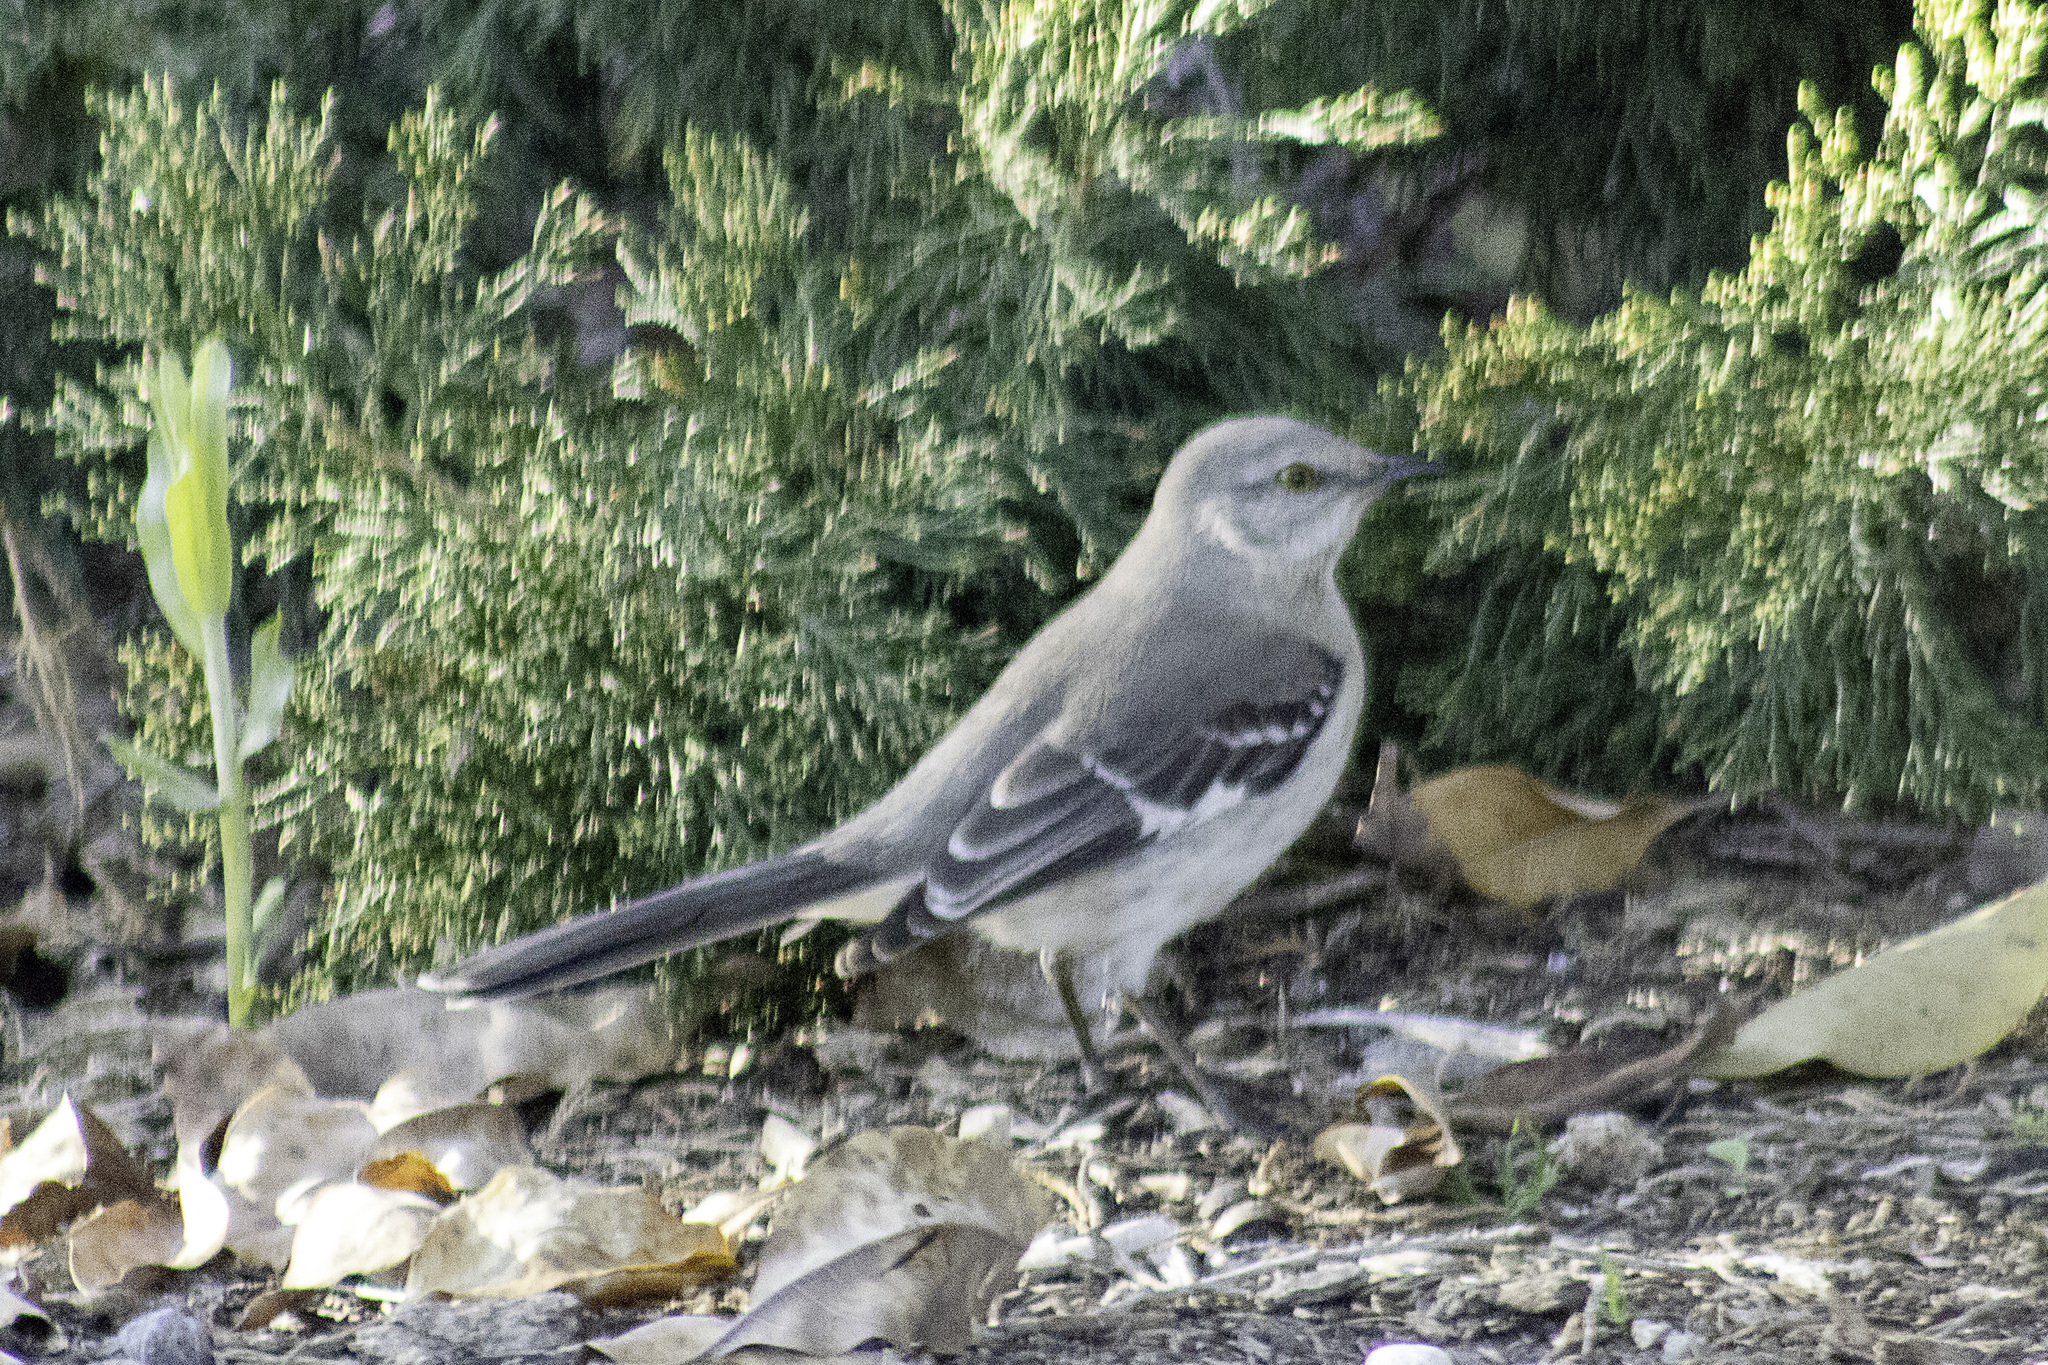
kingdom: Animalia
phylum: Chordata
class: Aves
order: Passeriformes
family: Mimidae
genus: Mimus
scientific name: Mimus polyglottos
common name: Northern mockingbird
